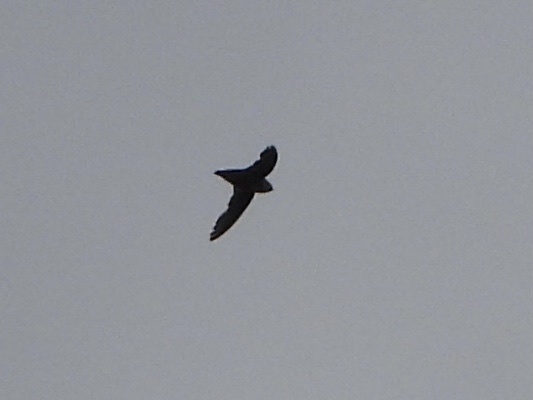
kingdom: Animalia
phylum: Chordata
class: Aves
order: Apodiformes
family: Apodidae
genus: Chaetura
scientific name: Chaetura vauxi
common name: Vaux's swift
